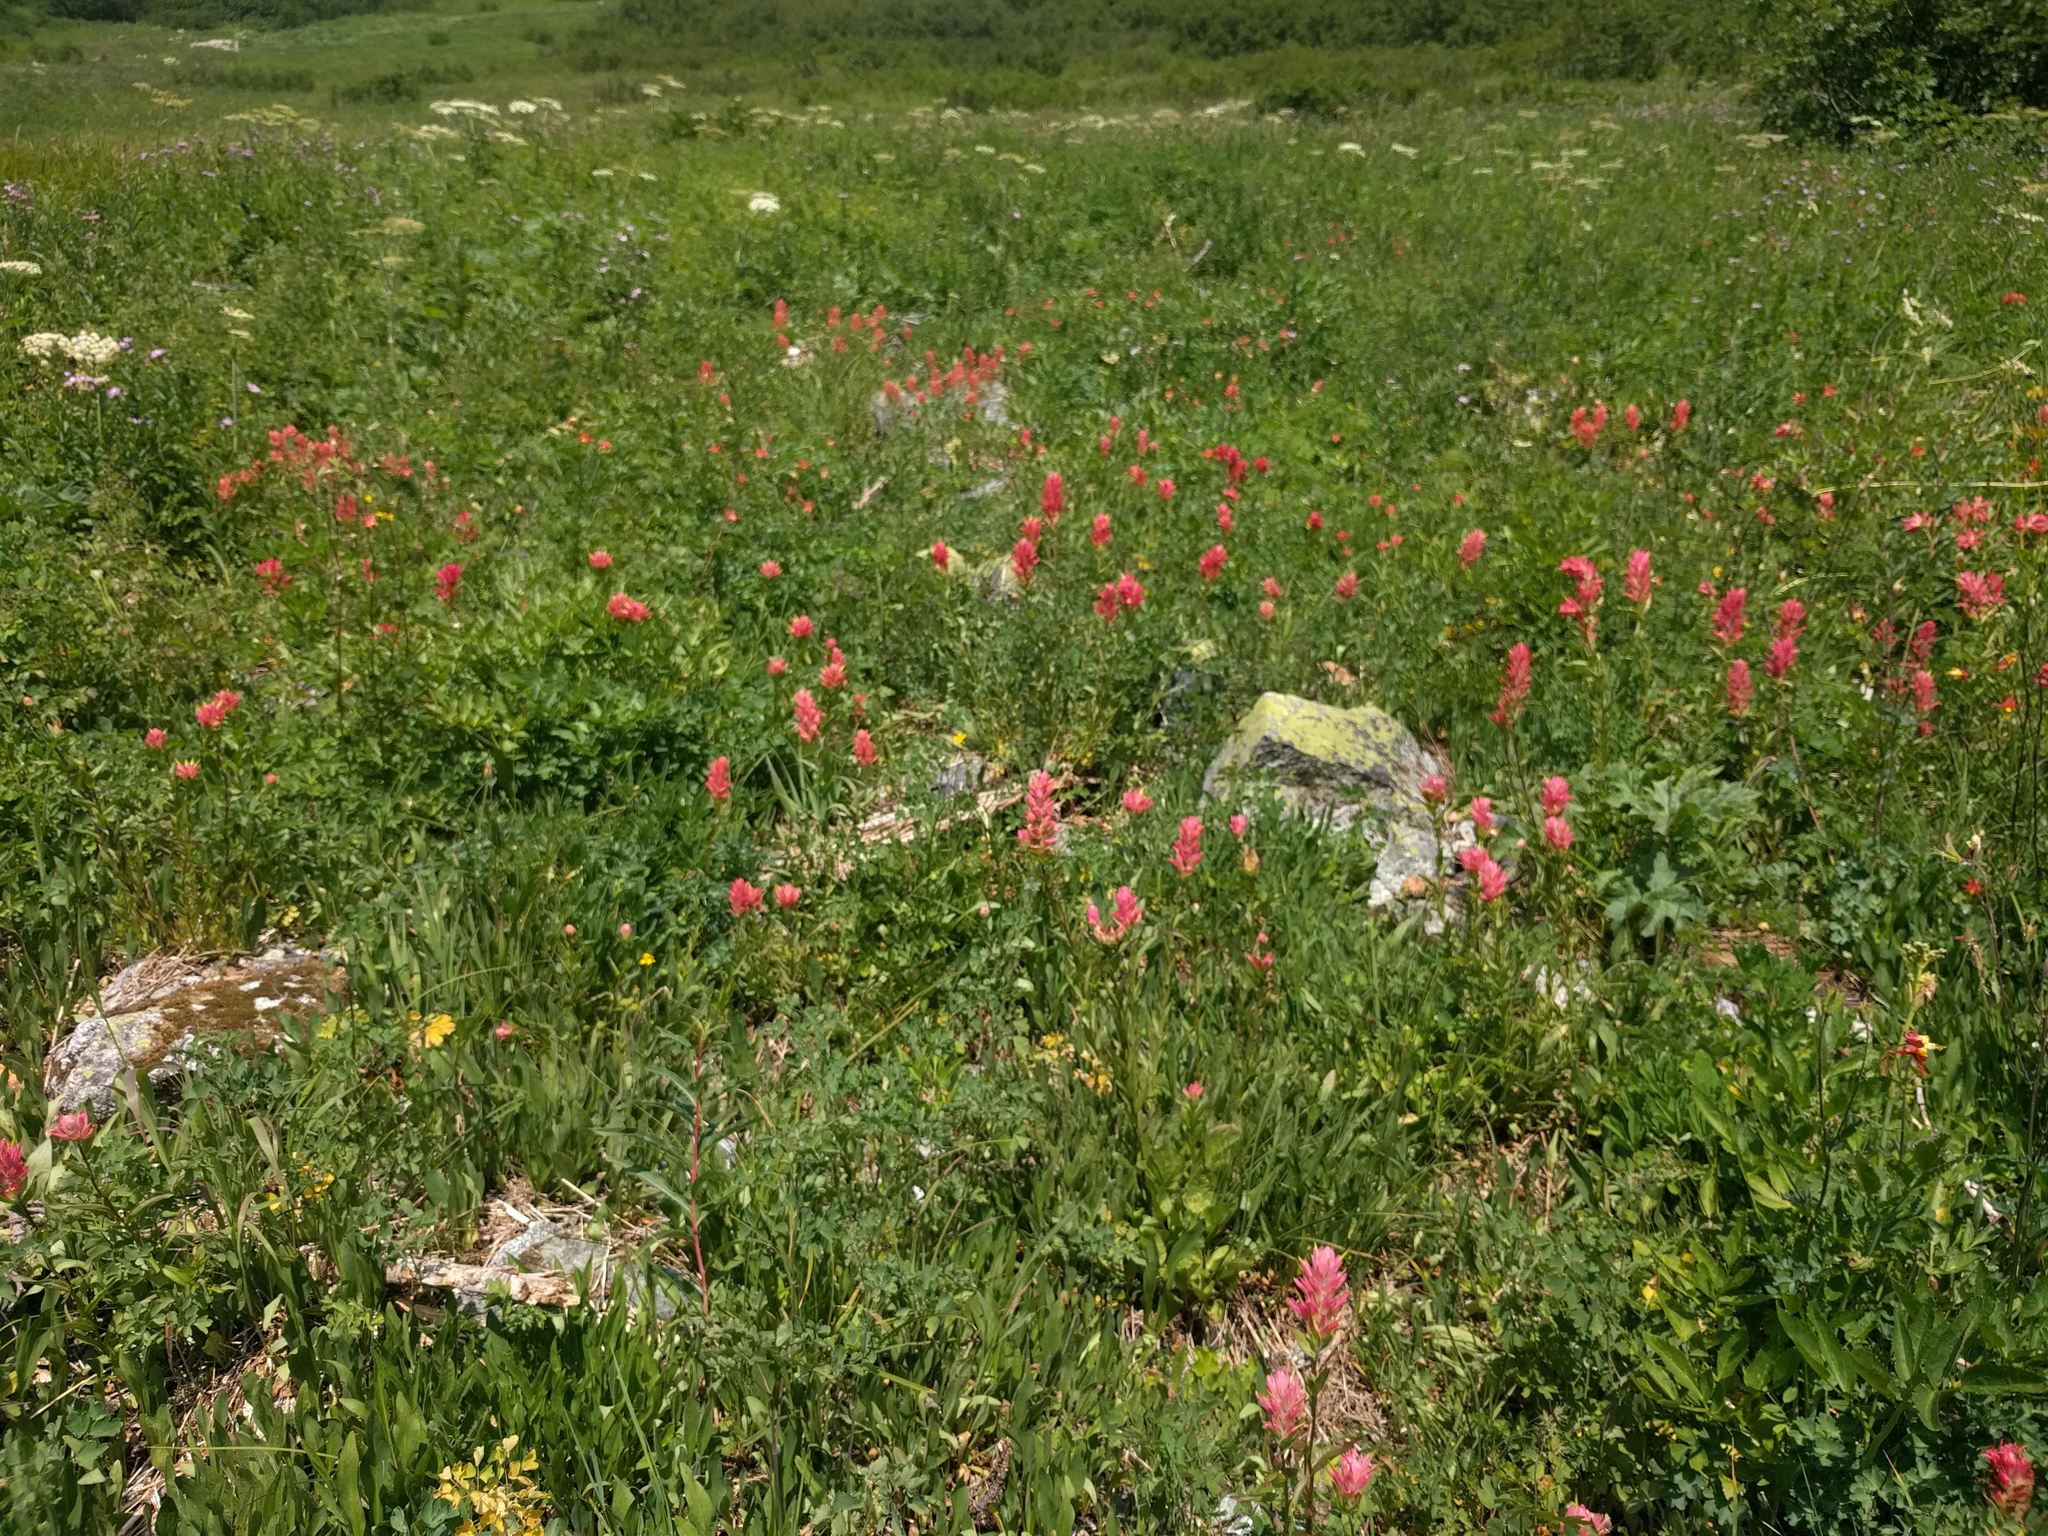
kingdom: Plantae
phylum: Tracheophyta
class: Magnoliopsida
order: Lamiales
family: Orobanchaceae
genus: Castilleja
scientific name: Castilleja miniata
